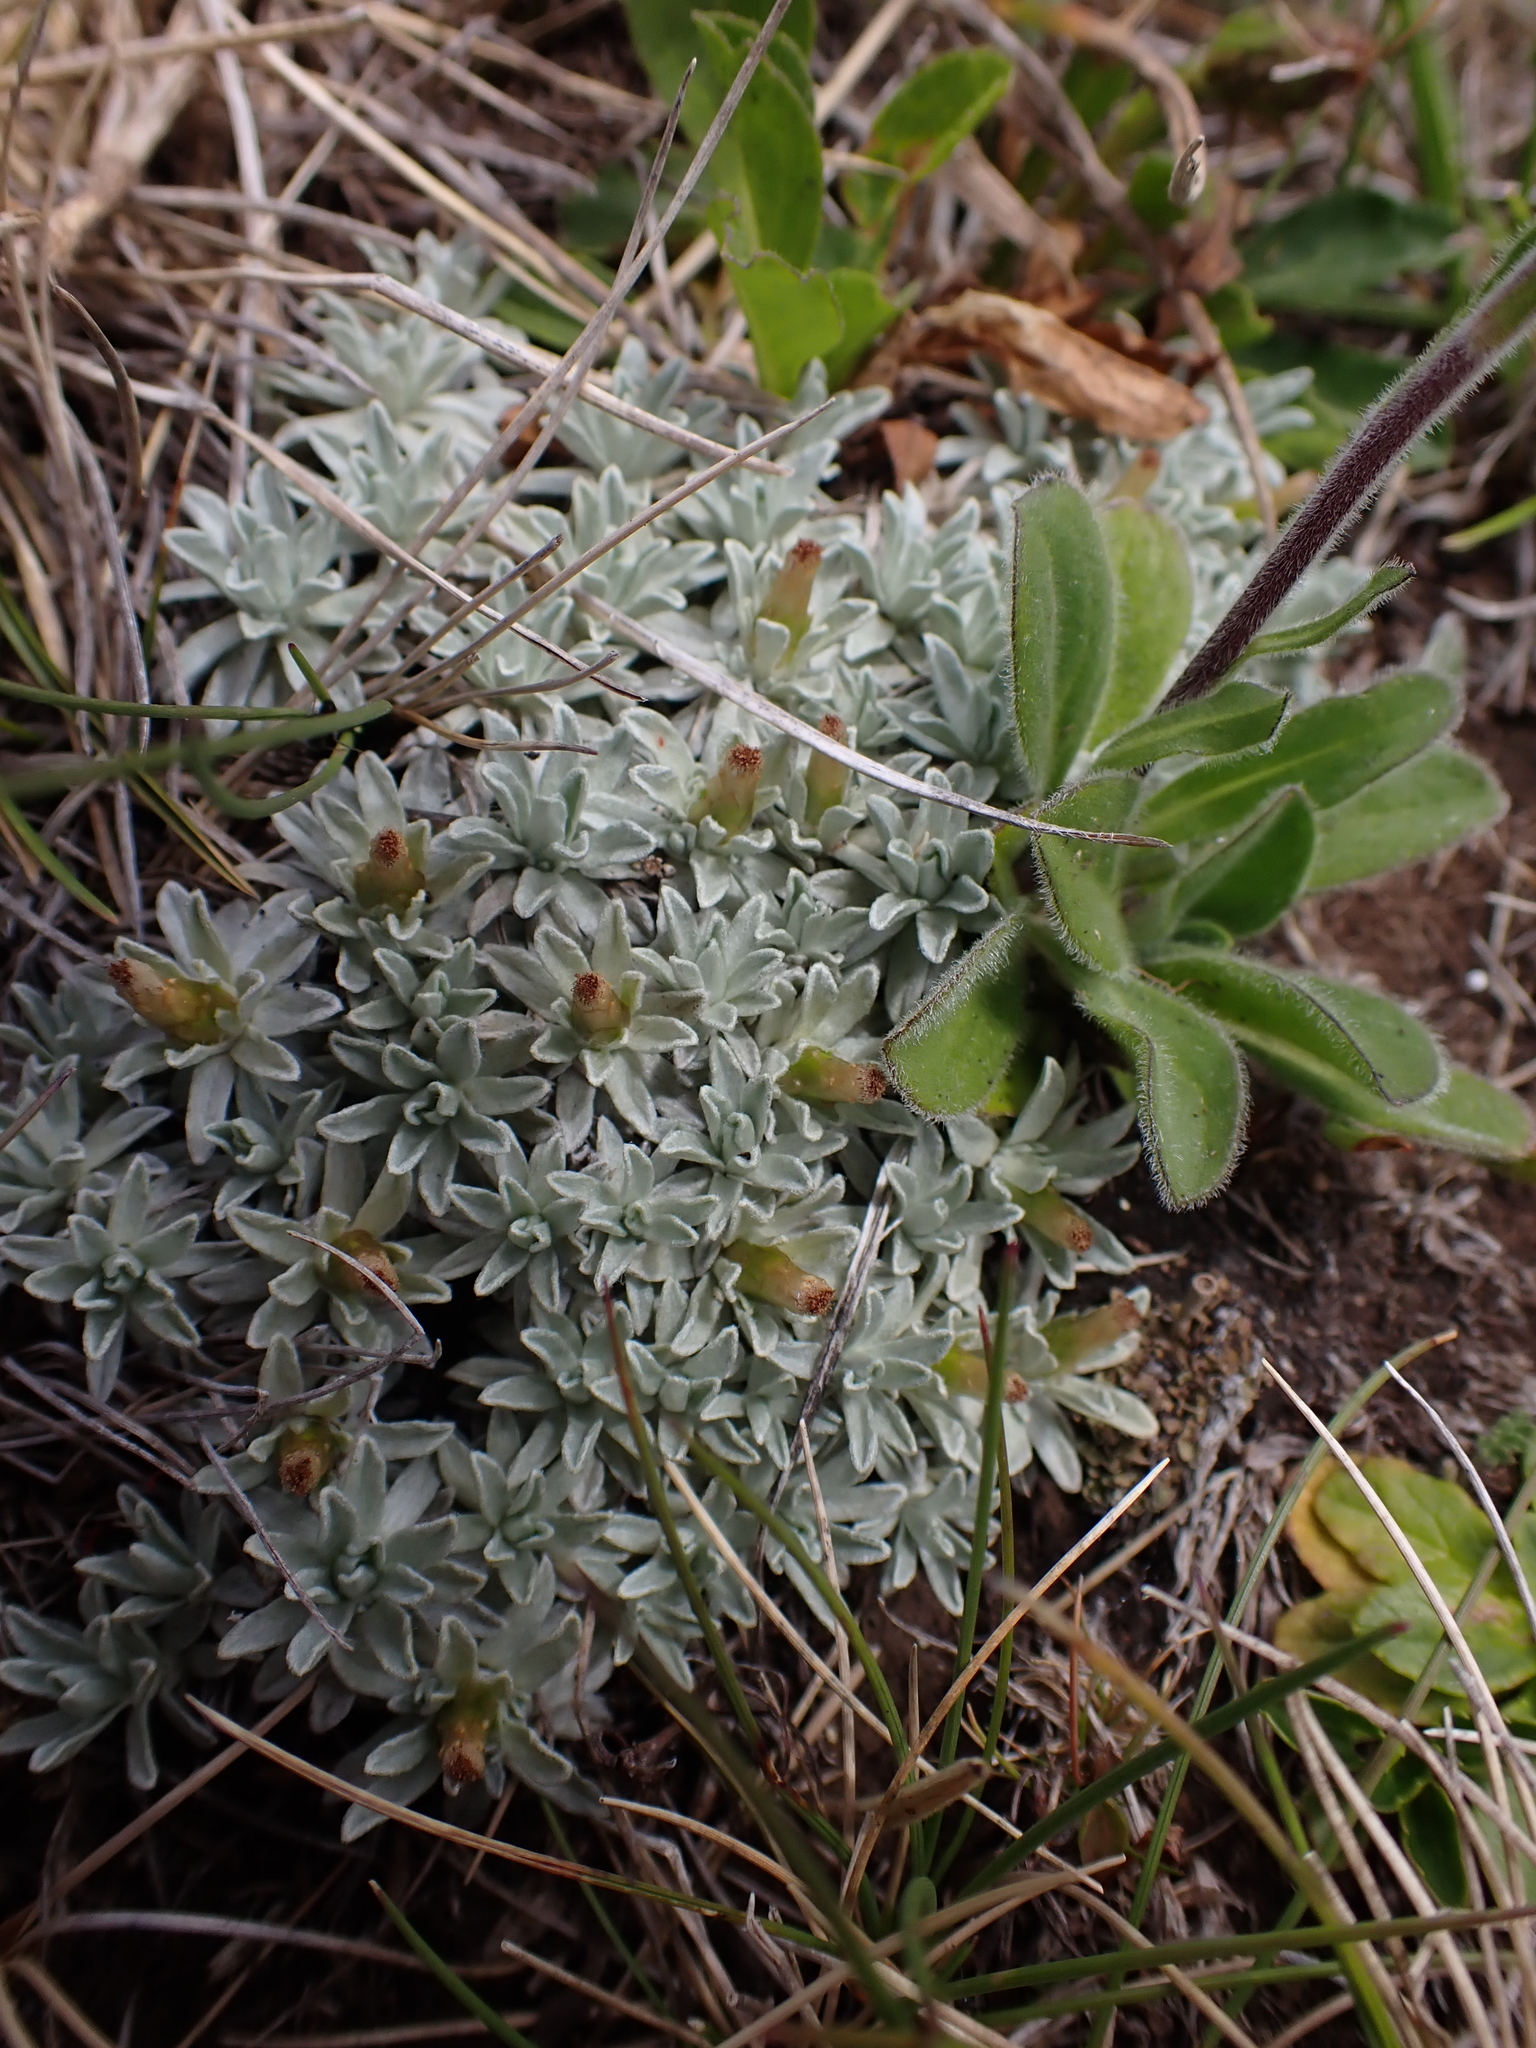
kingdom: Plantae
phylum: Tracheophyta
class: Magnoliopsida
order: Asterales
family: Asteraceae
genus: Argyrotegium
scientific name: Argyrotegium nitidulum
